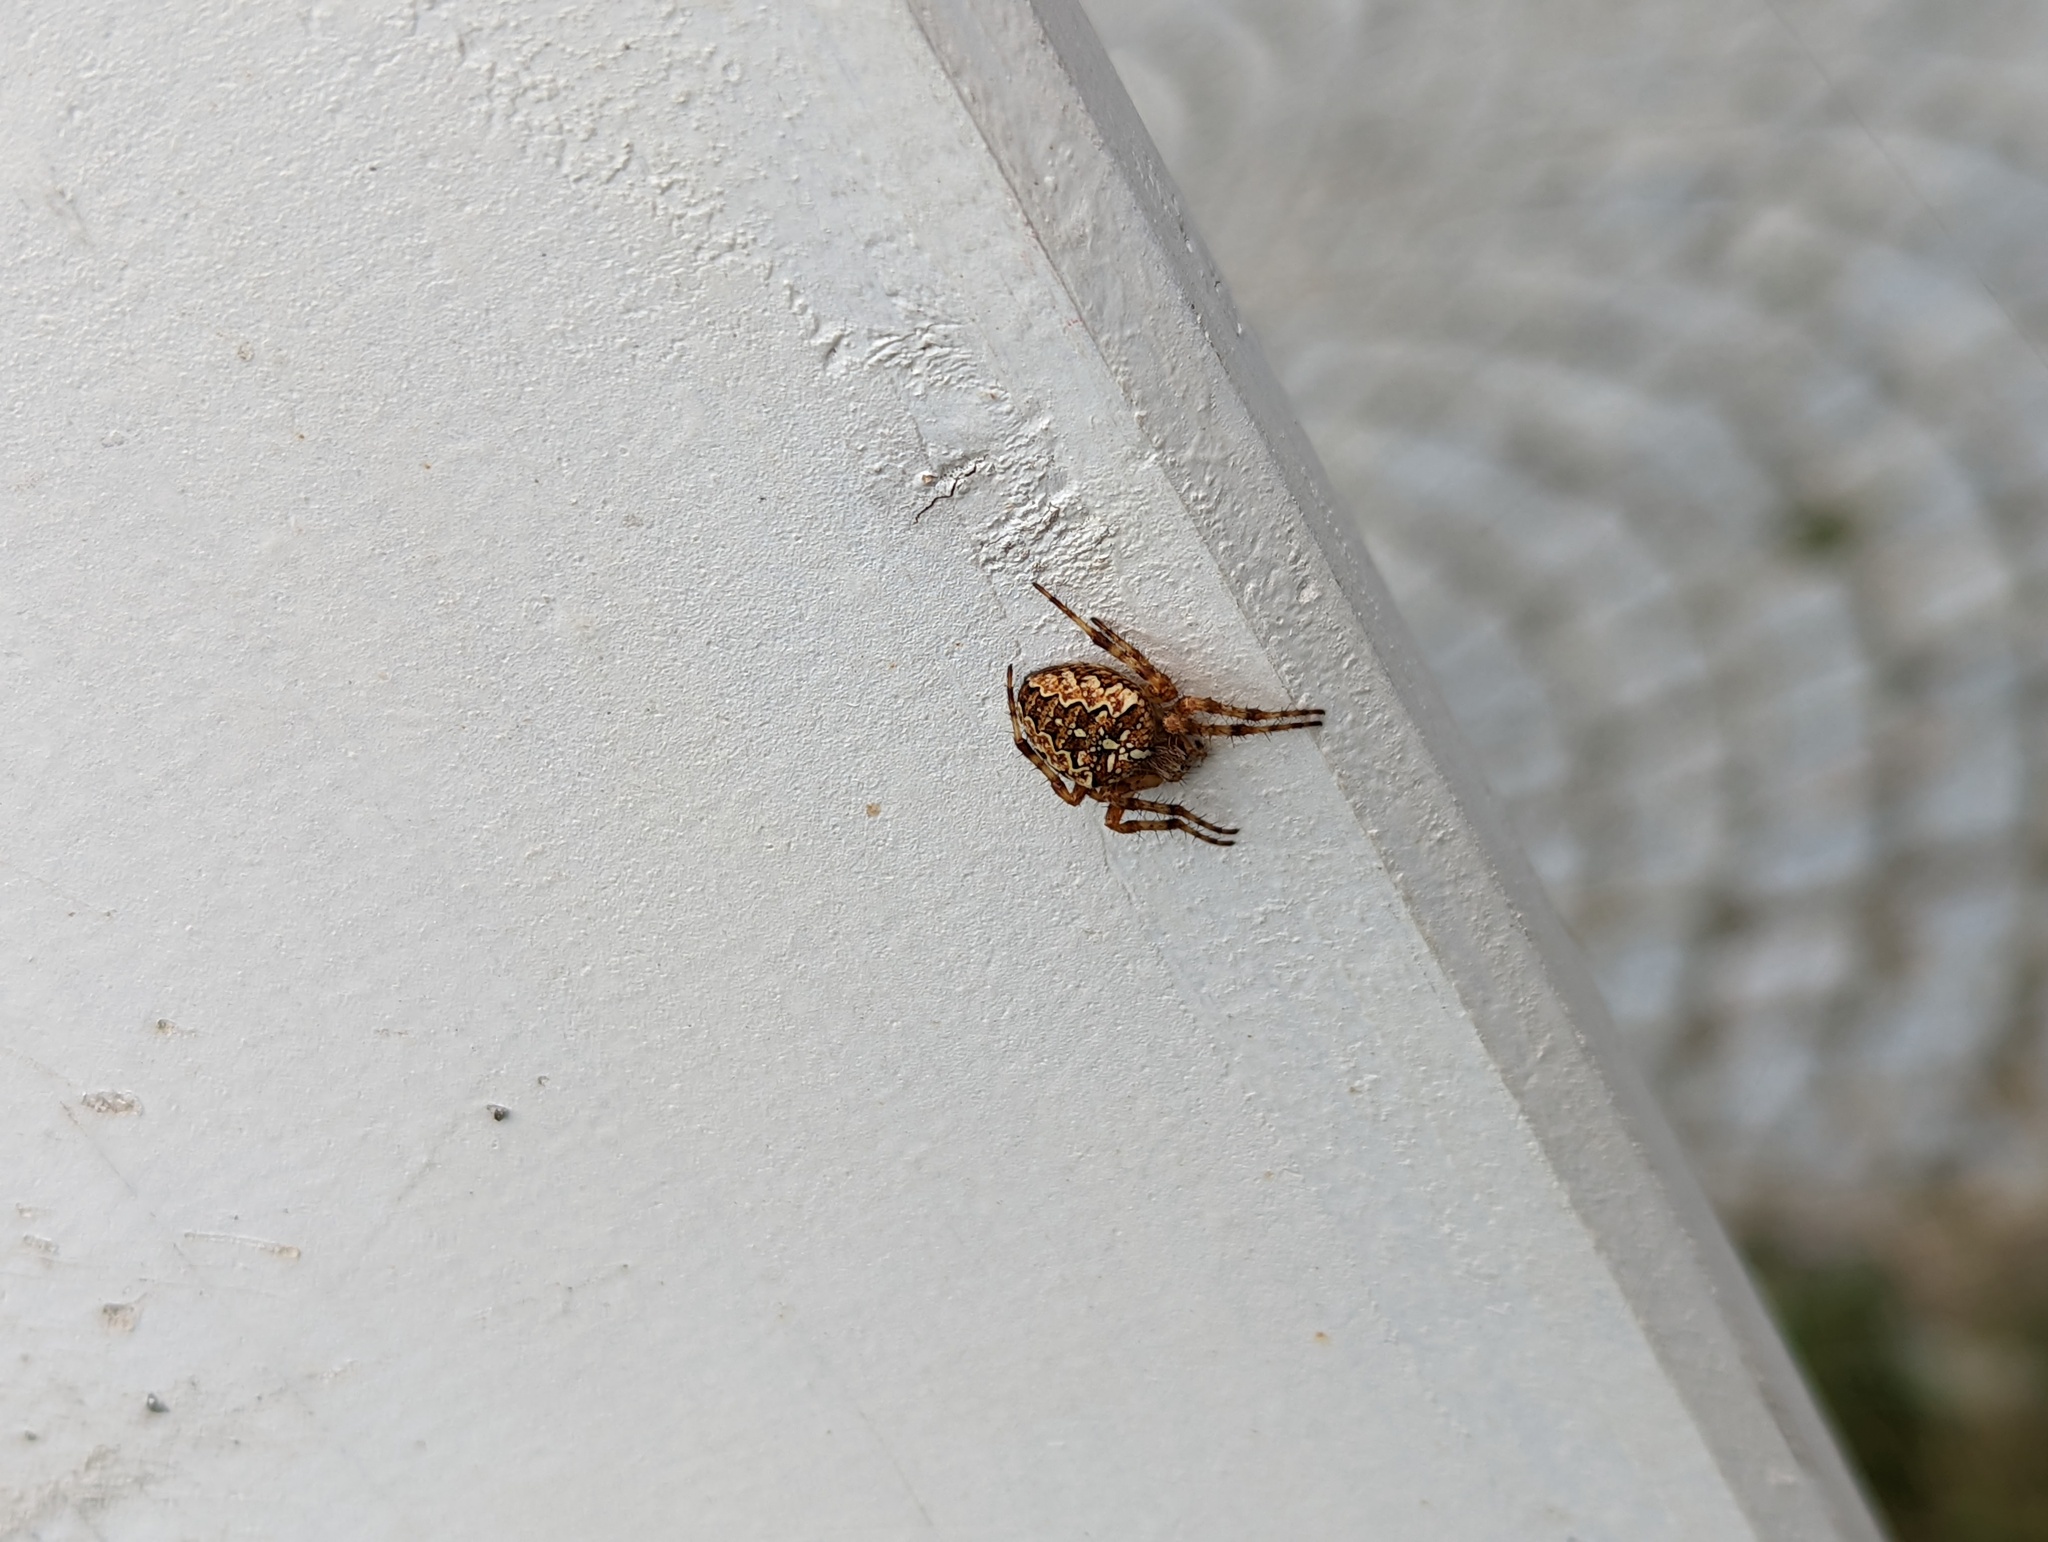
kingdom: Animalia
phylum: Arthropoda
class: Arachnida
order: Araneae
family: Araneidae
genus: Araneus
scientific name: Araneus diadematus
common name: Cross orbweaver
